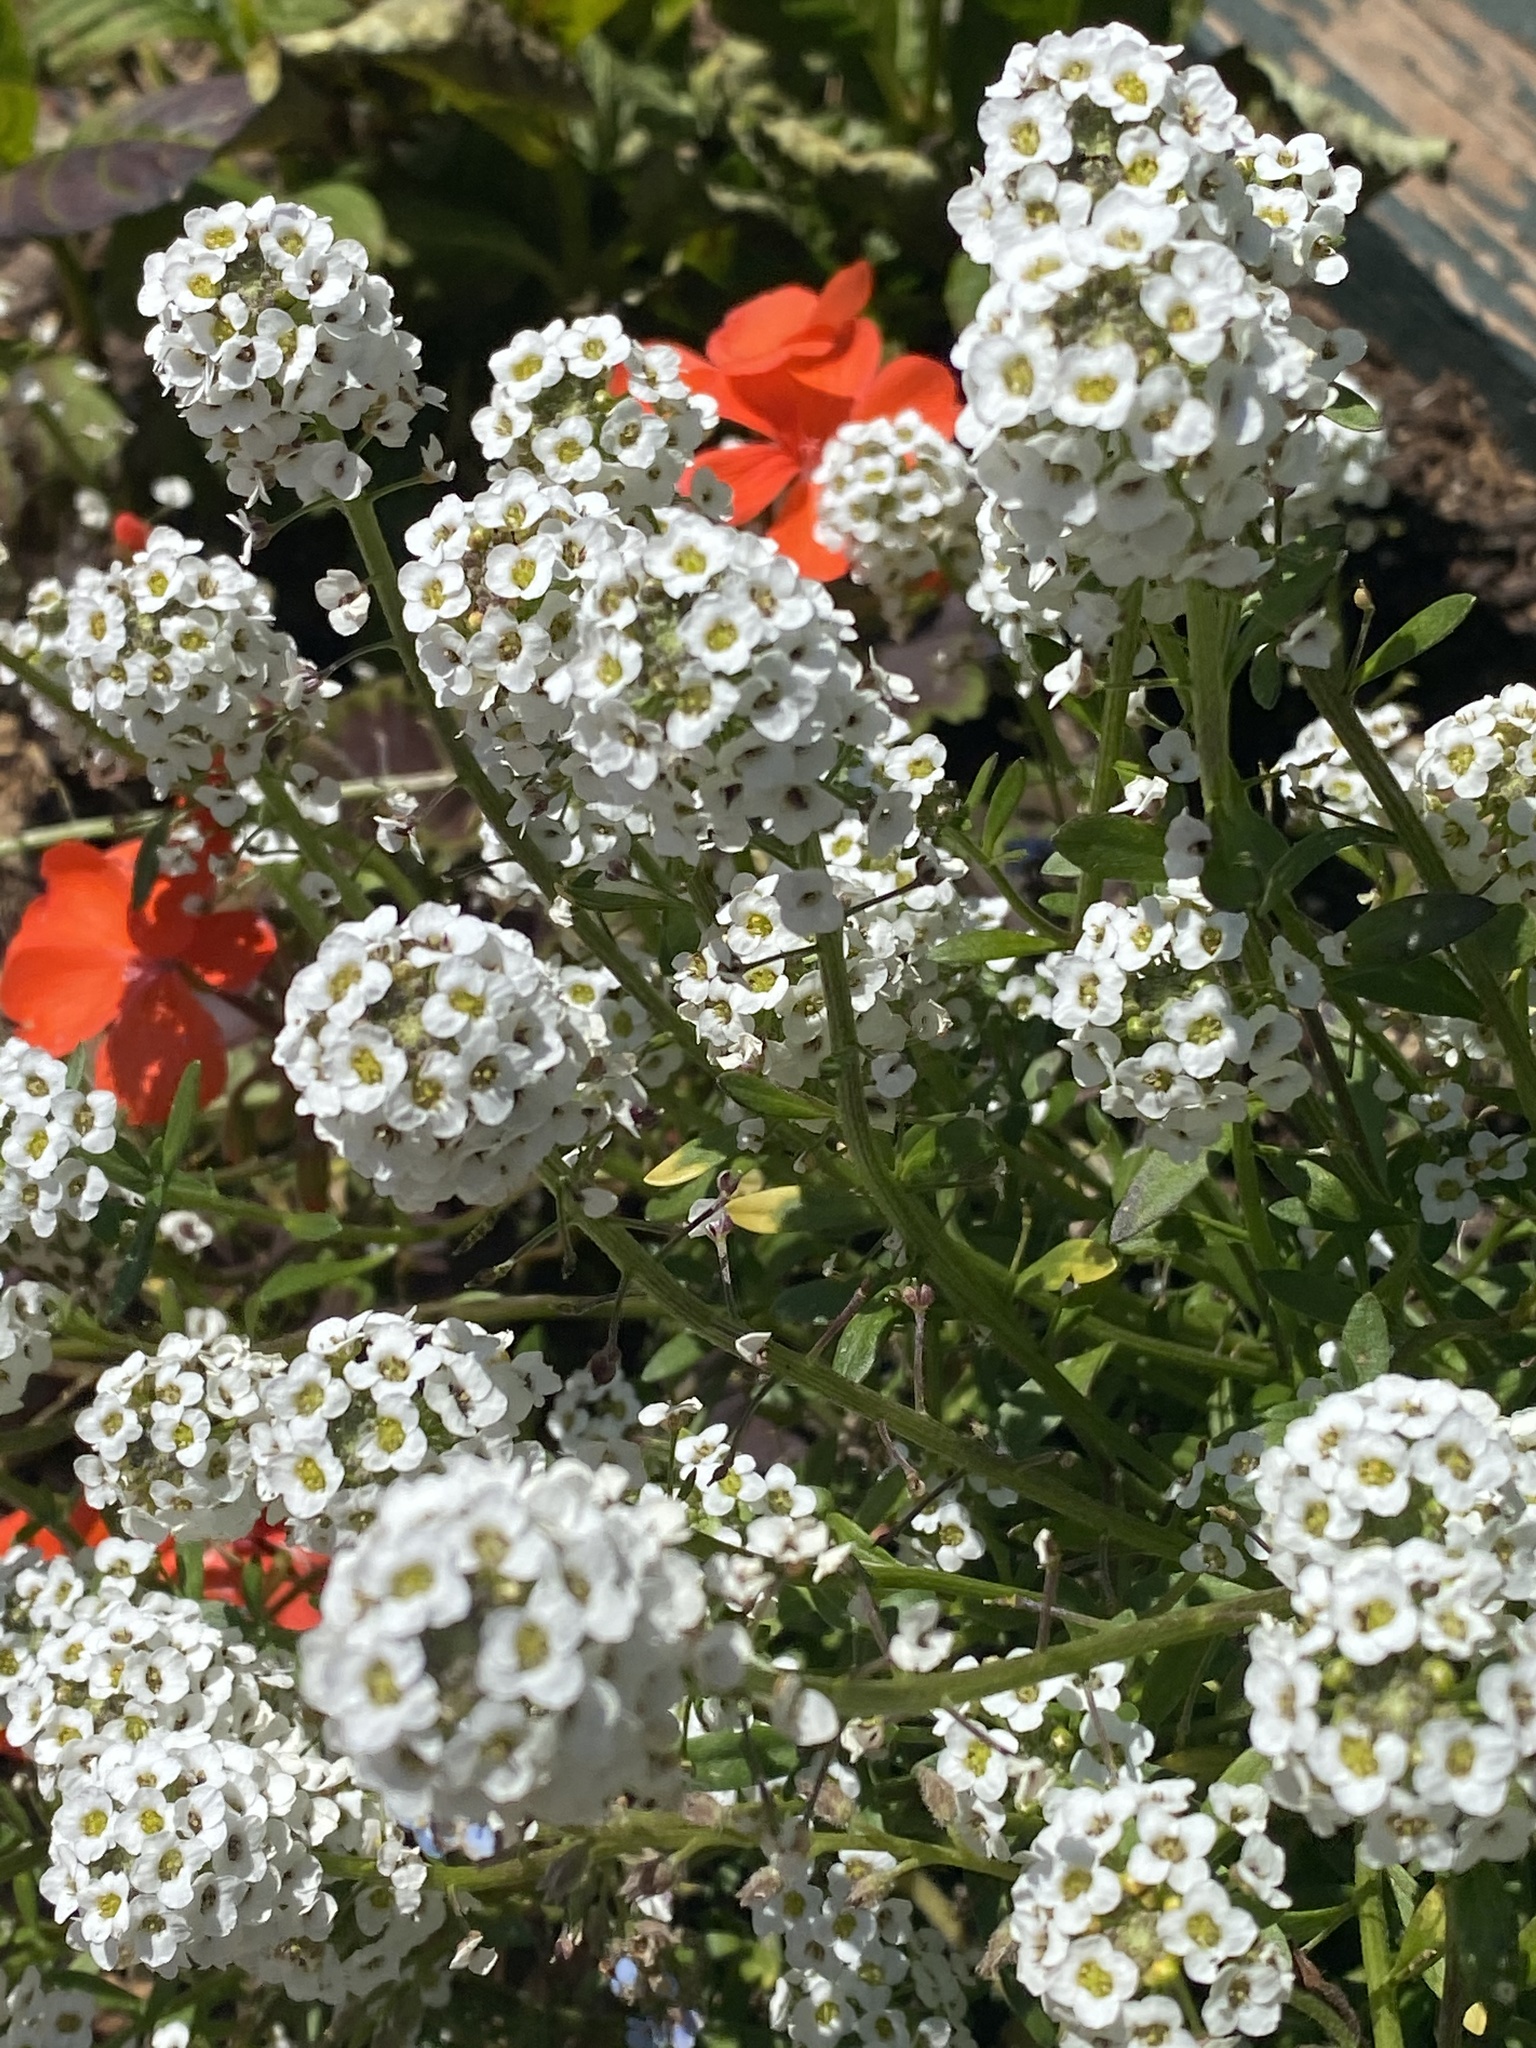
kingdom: Plantae
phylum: Tracheophyta
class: Magnoliopsida
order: Brassicales
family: Brassicaceae
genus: Lobularia
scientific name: Lobularia maritima
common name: Sweet alison
